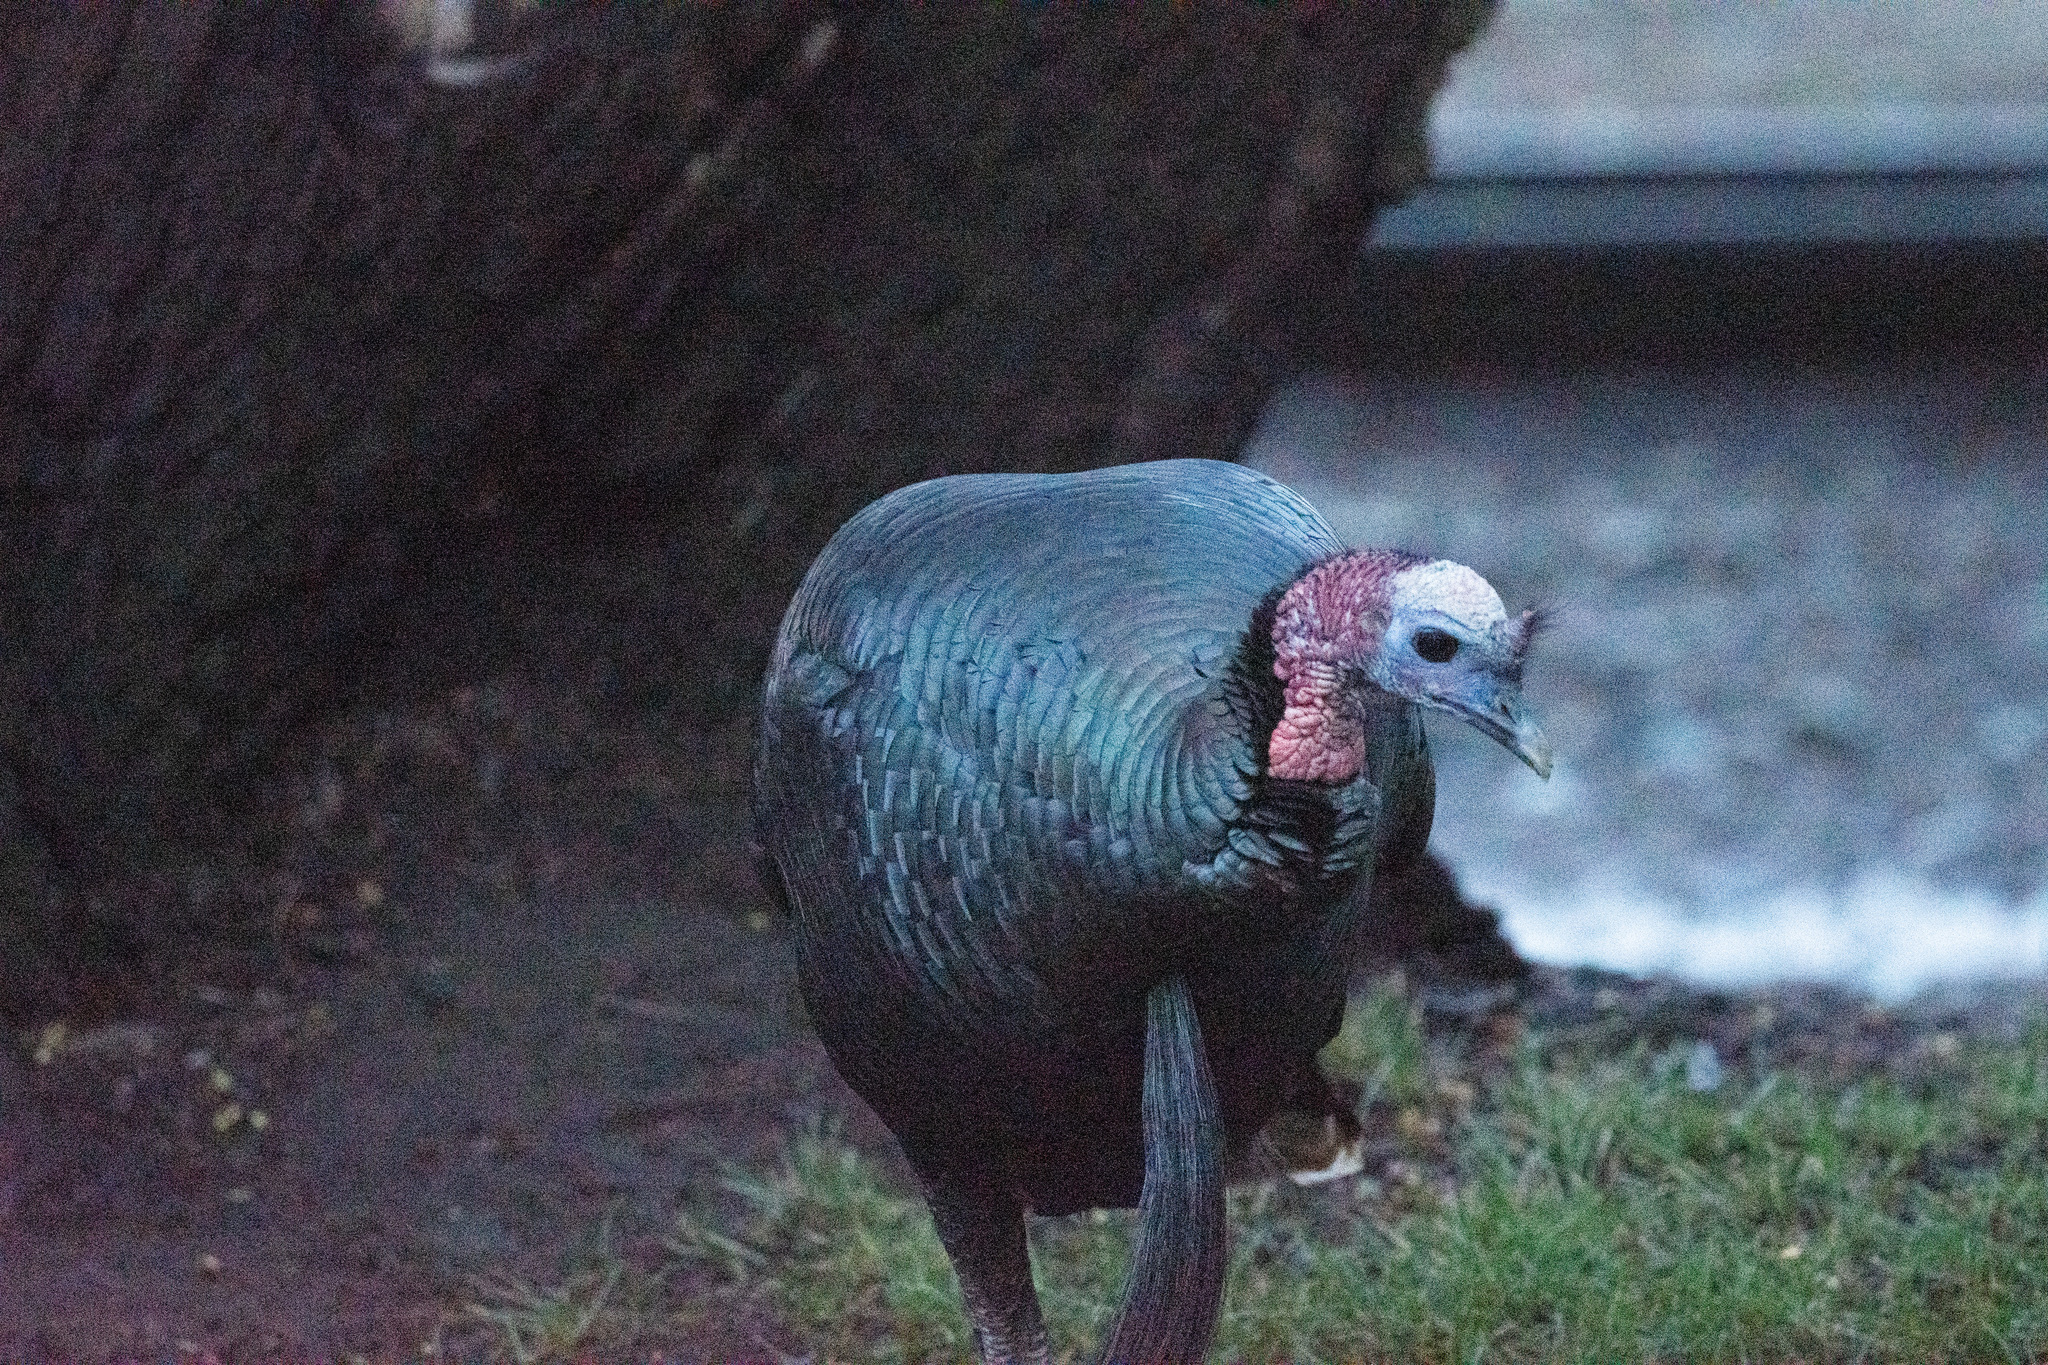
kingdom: Animalia
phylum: Chordata
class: Aves
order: Galliformes
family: Phasianidae
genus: Meleagris
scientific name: Meleagris gallopavo
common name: Wild turkey
